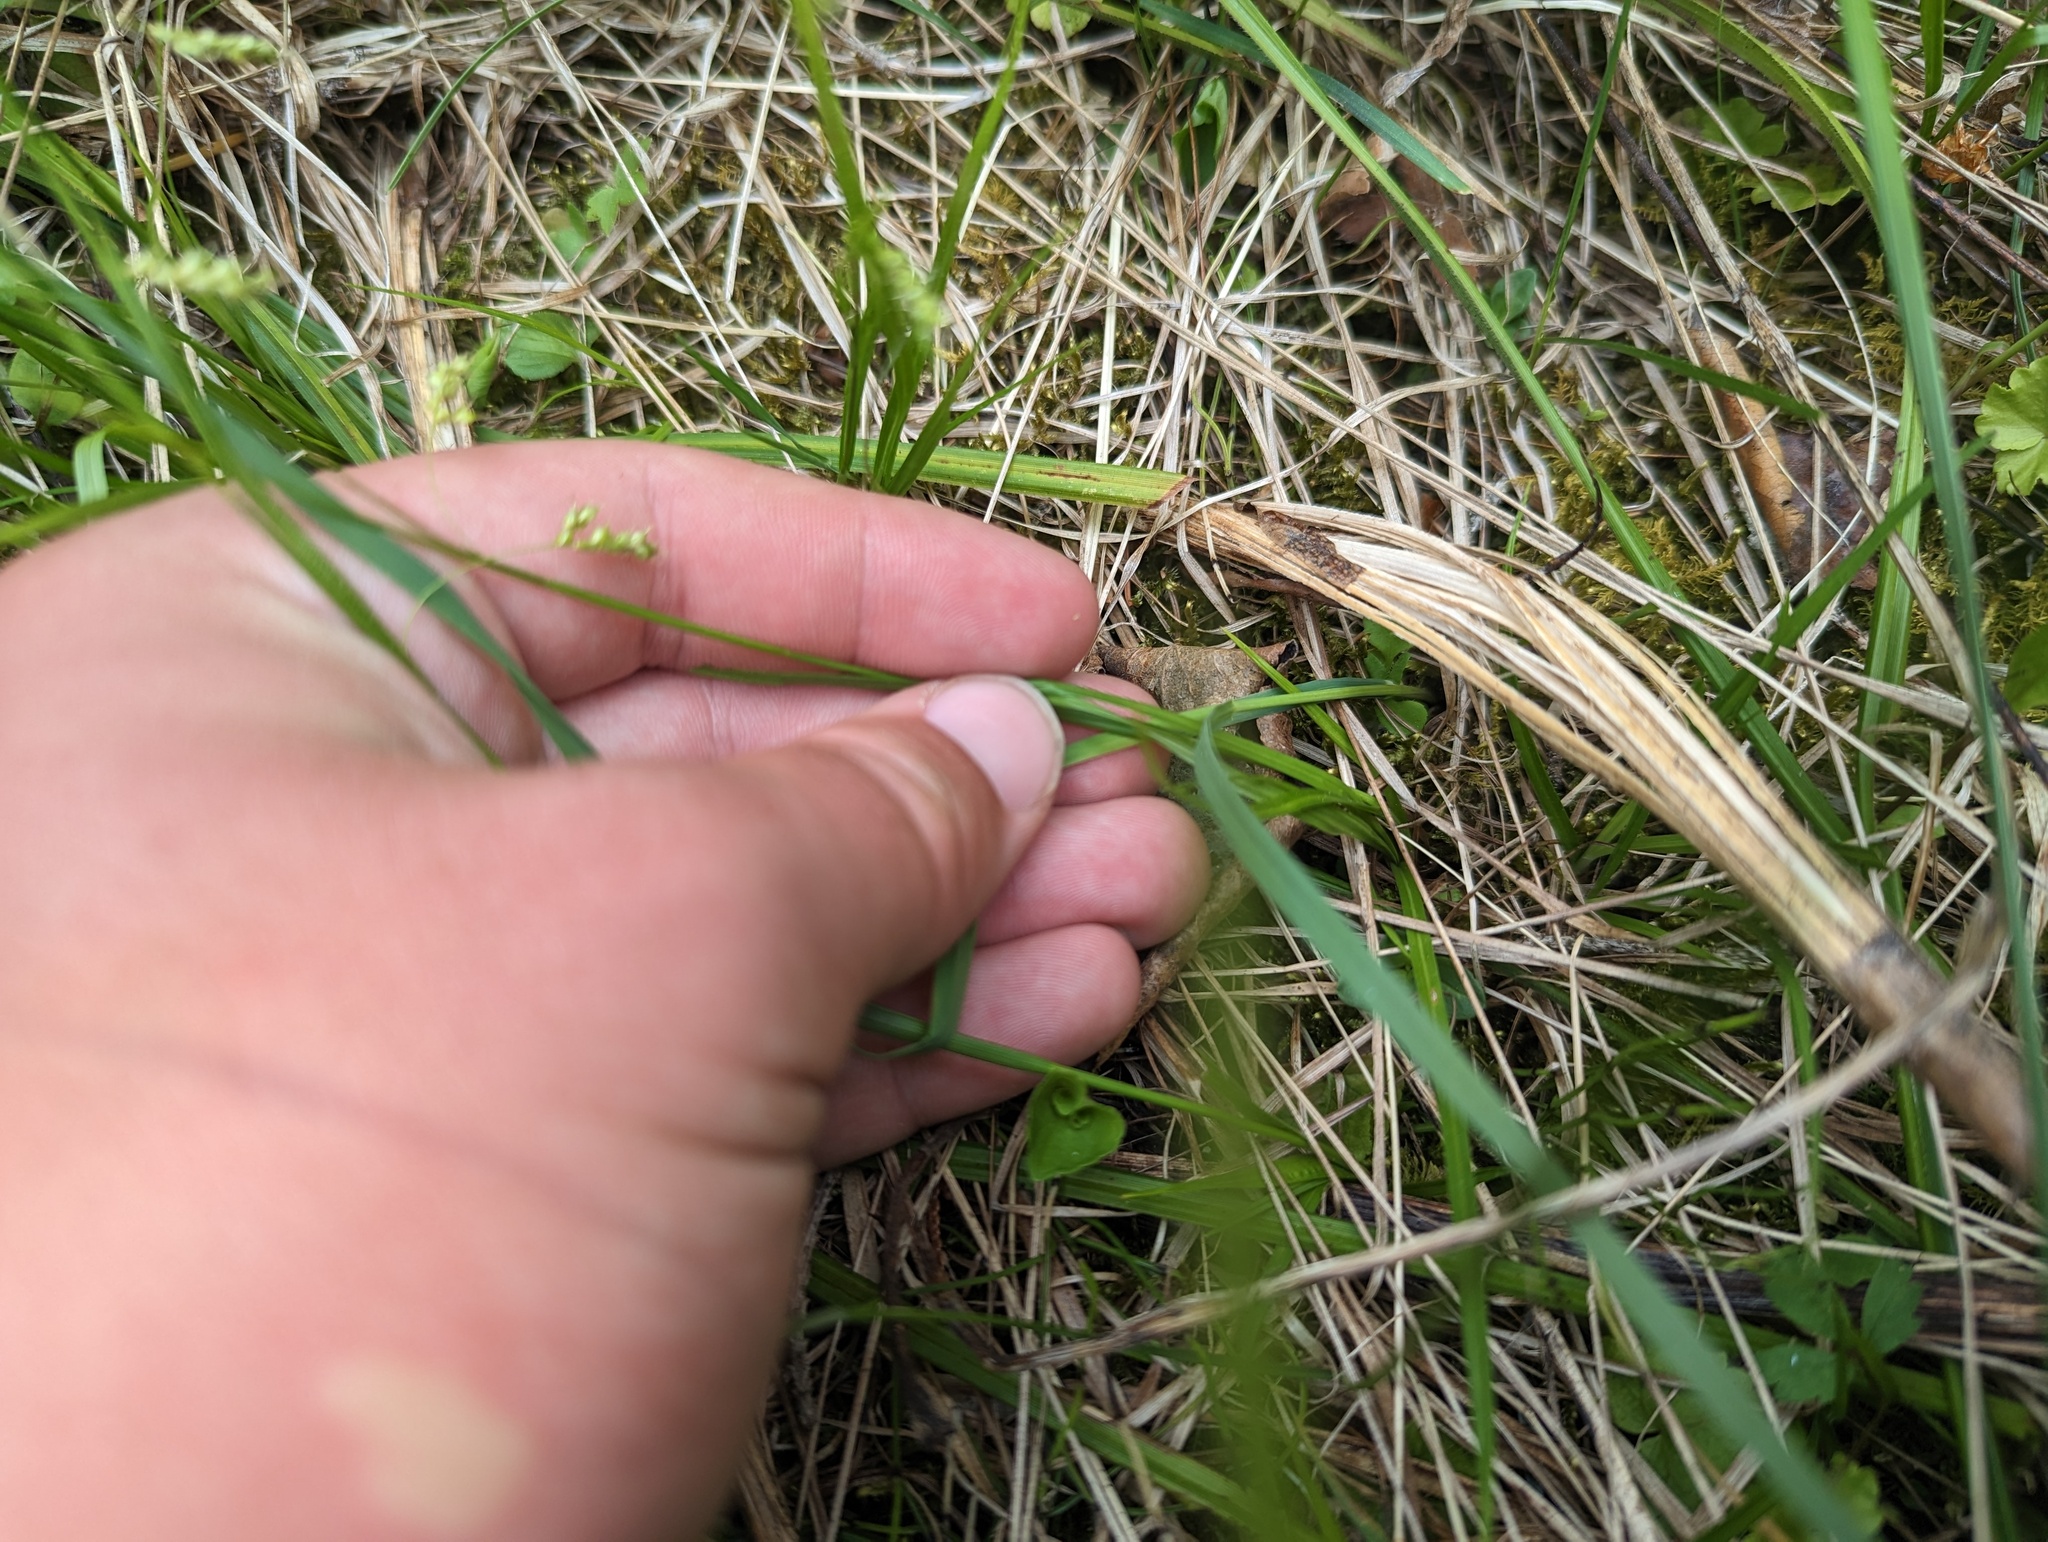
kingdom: Plantae
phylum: Tracheophyta
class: Liliopsida
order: Poales
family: Cyperaceae
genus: Carex
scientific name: Carex capillaris
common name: Hair sedge
